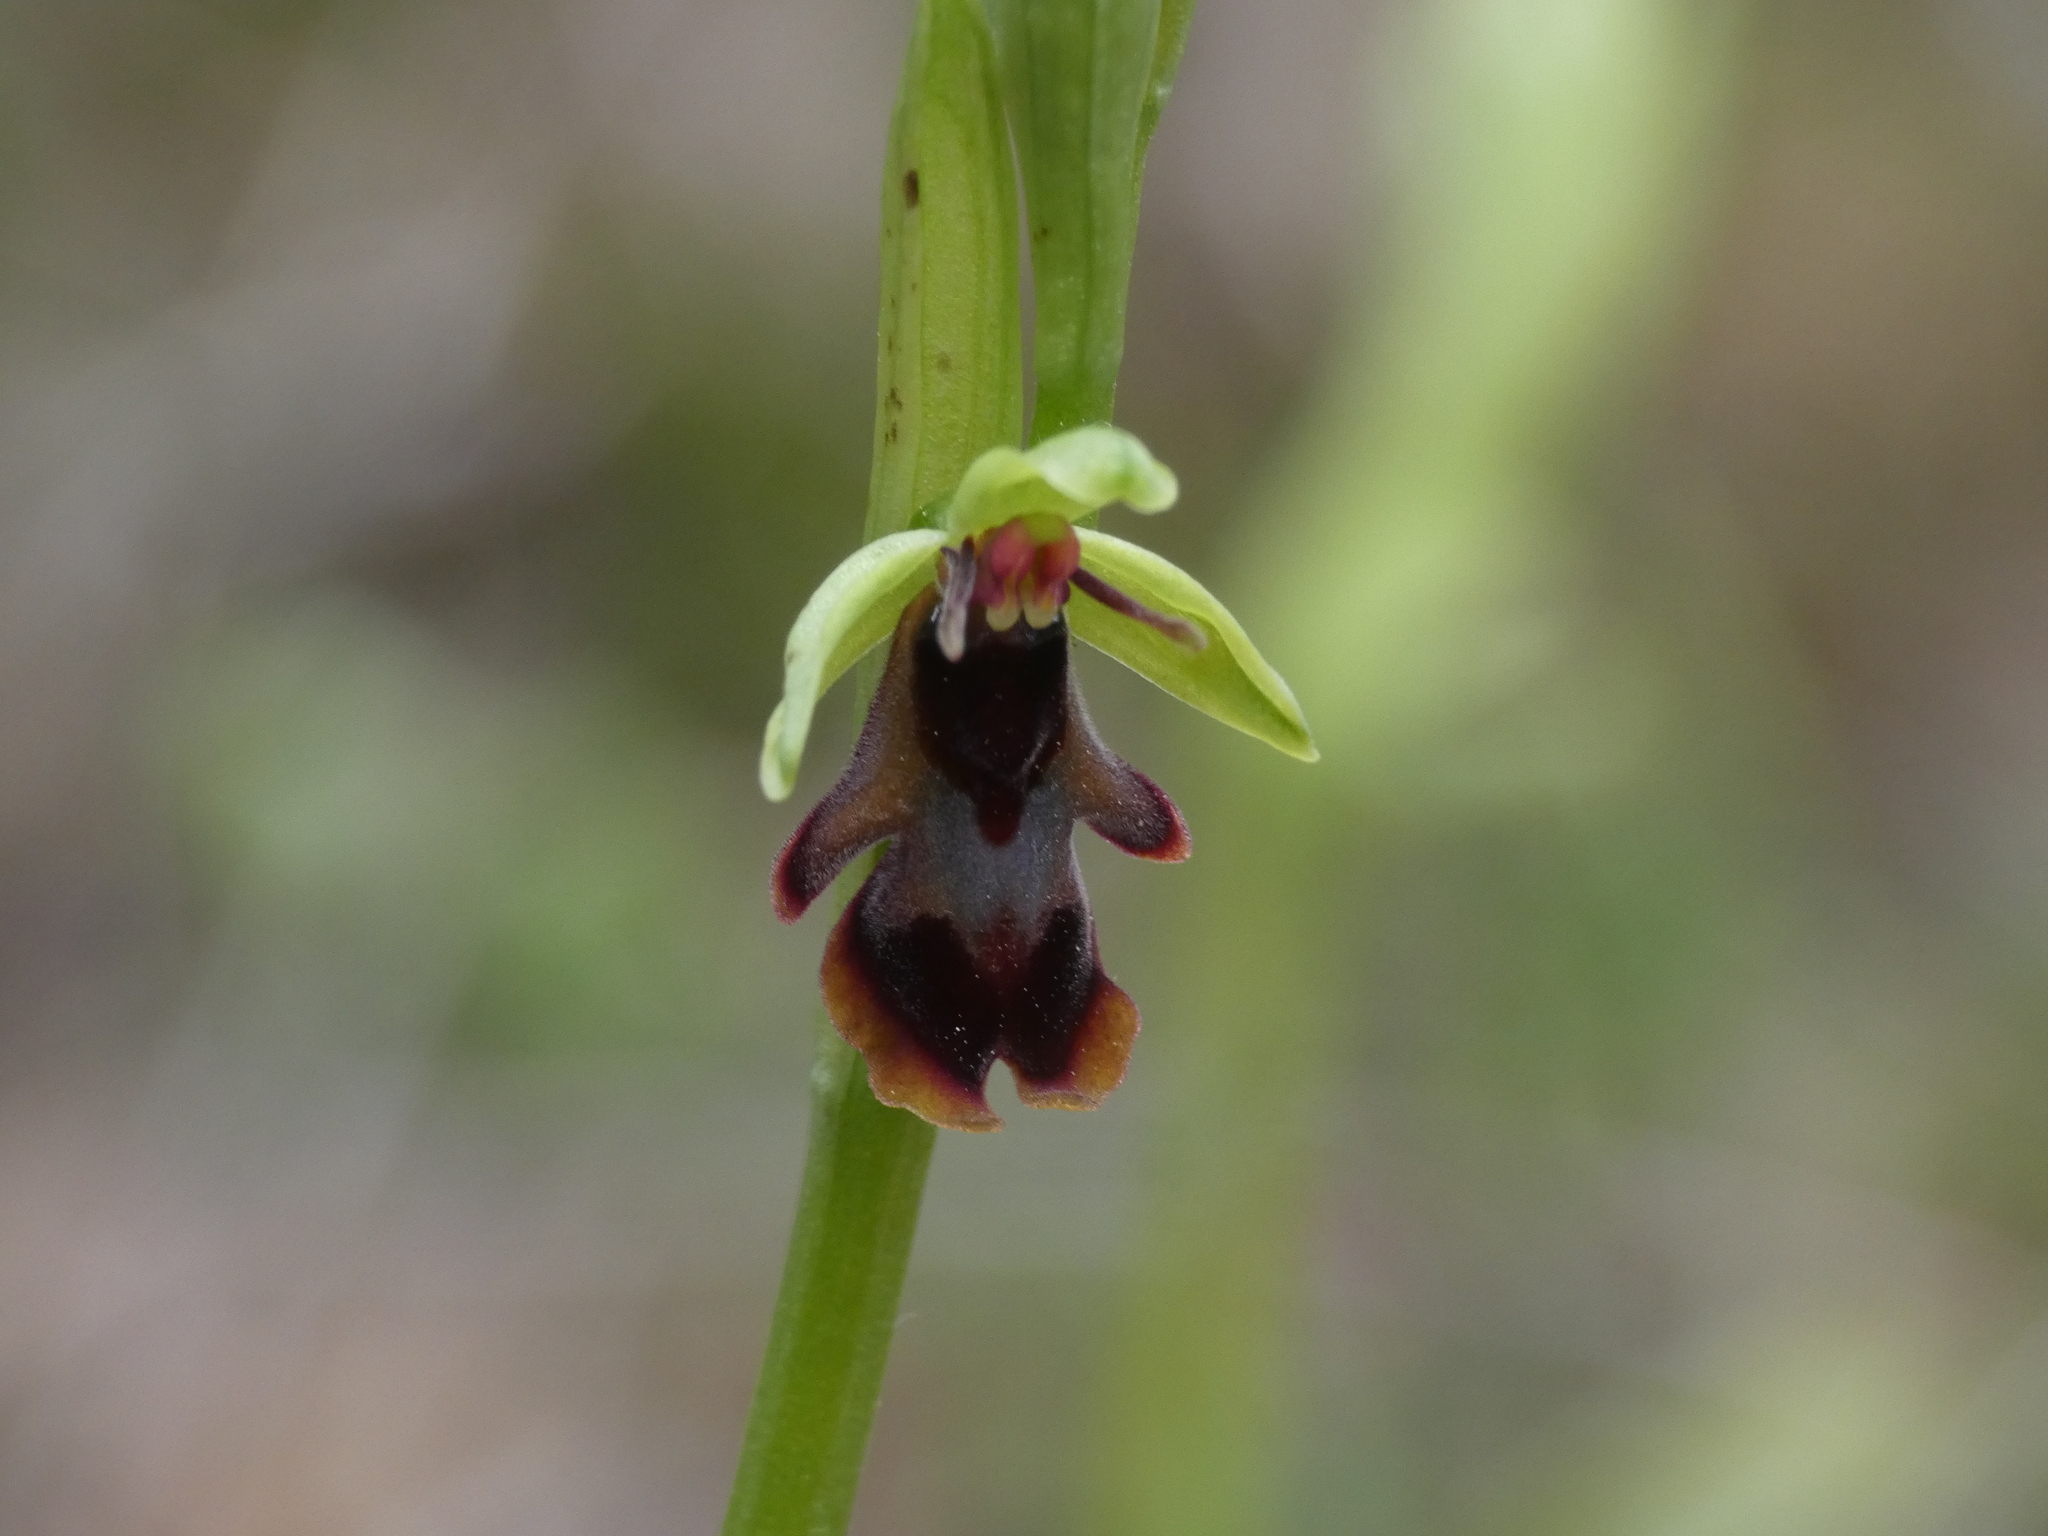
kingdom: Plantae
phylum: Tracheophyta
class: Liliopsida
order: Asparagales
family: Orchidaceae
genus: Ophrys
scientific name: Ophrys insectifera
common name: Fly orchid
